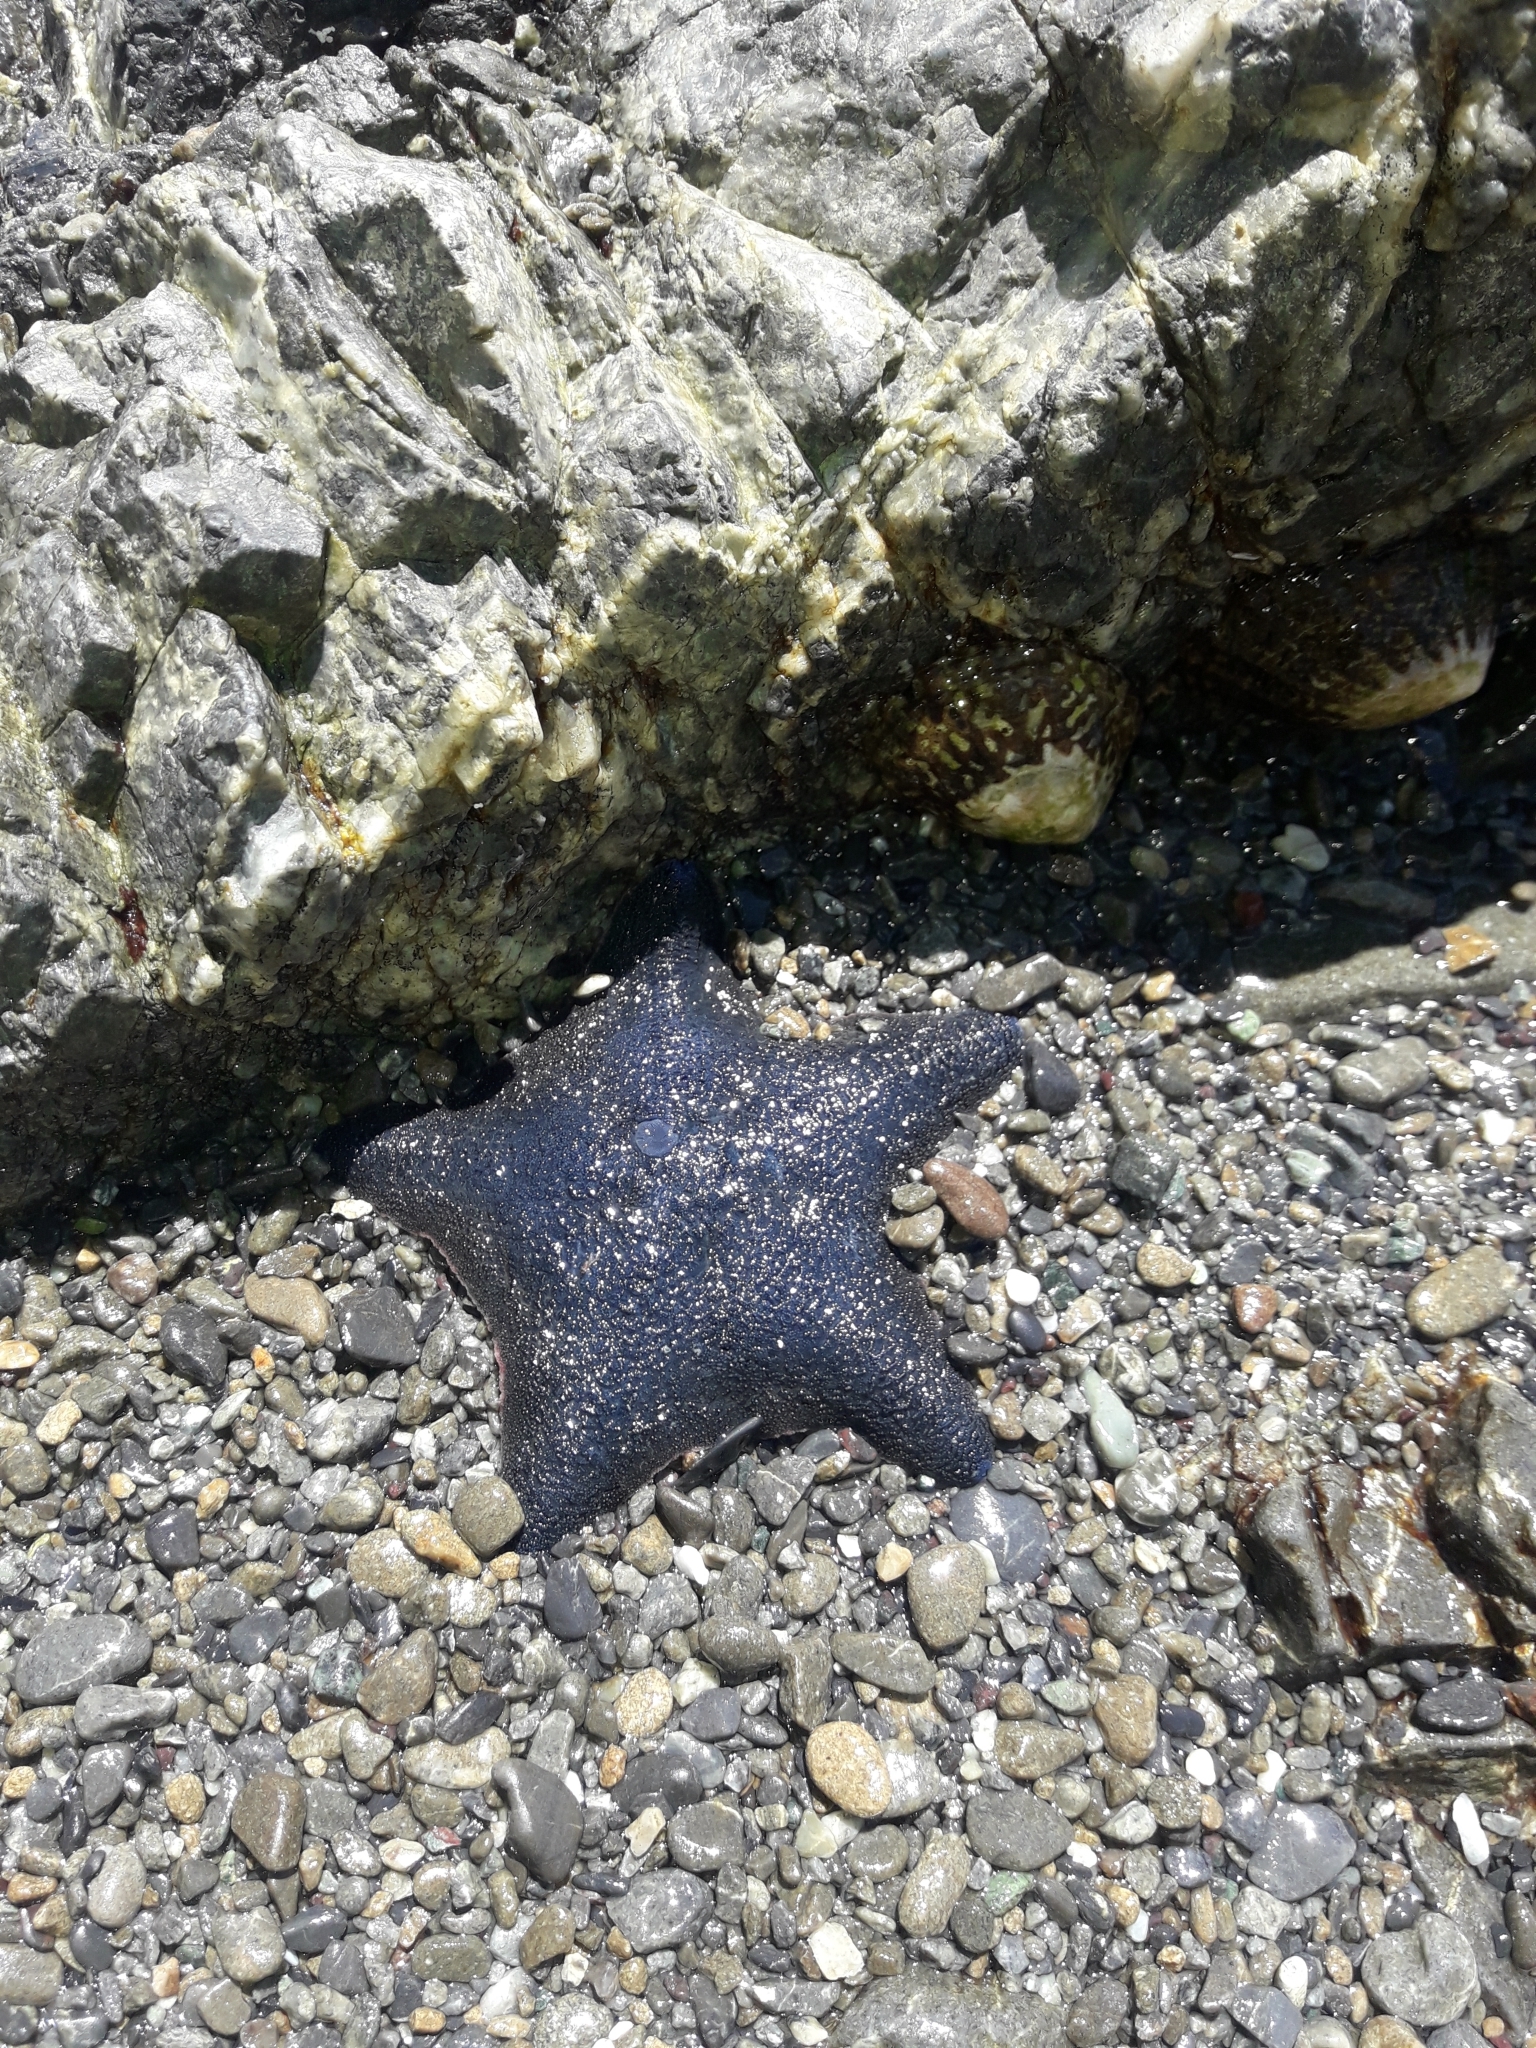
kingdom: Animalia
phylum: Echinodermata
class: Asteroidea
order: Valvatida
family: Asterinidae
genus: Patiriella
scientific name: Patiriella regularis
